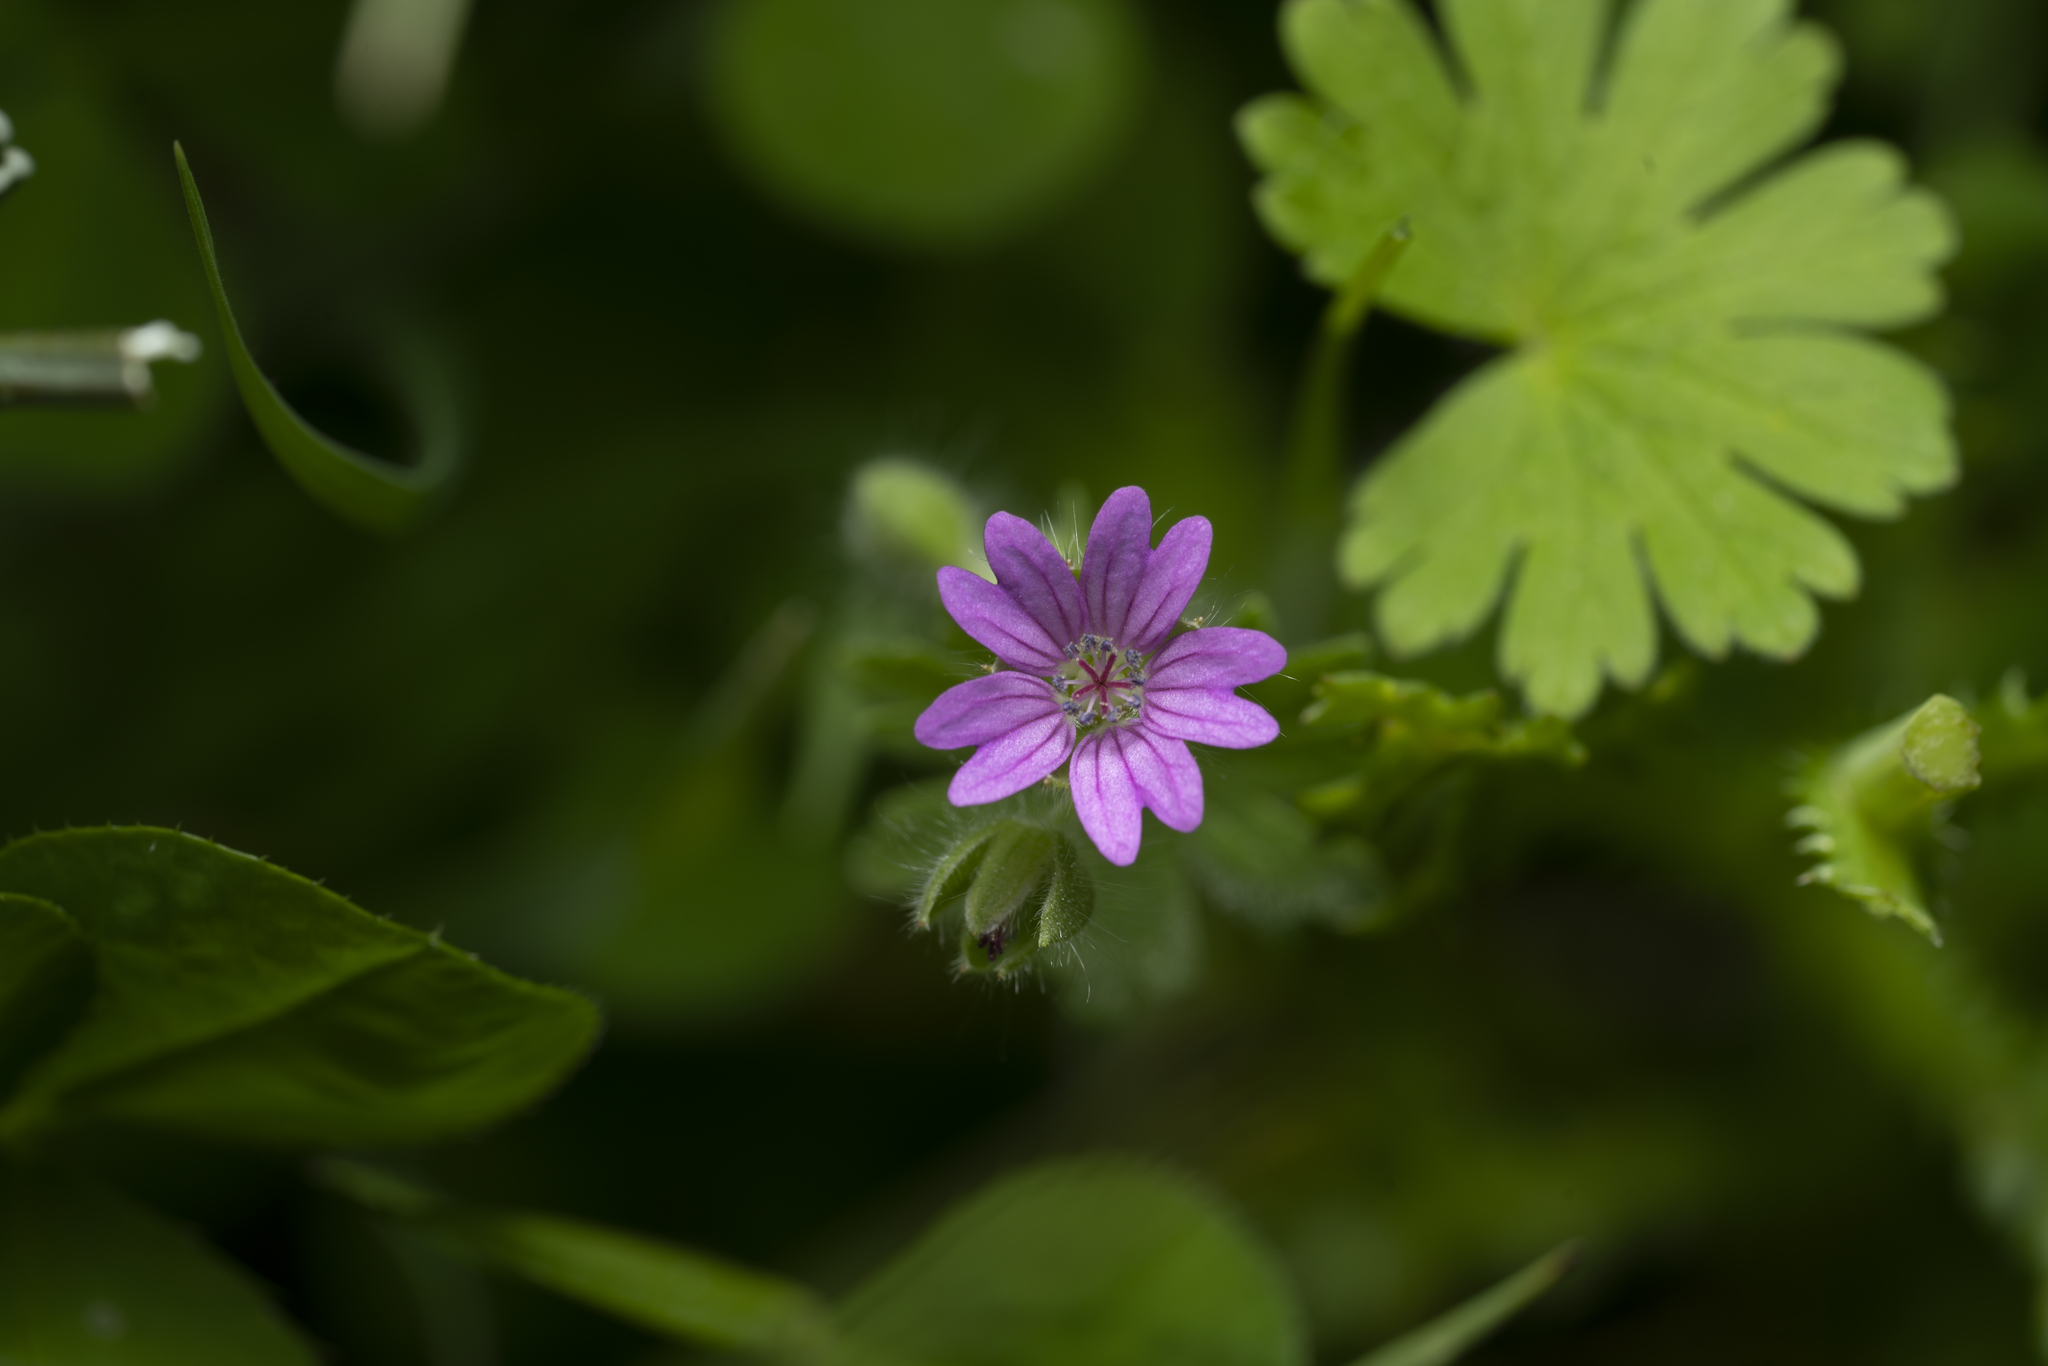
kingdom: Plantae
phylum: Tracheophyta
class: Magnoliopsida
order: Geraniales
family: Geraniaceae
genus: Geranium
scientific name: Geranium molle
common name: Dove's-foot crane's-bill
